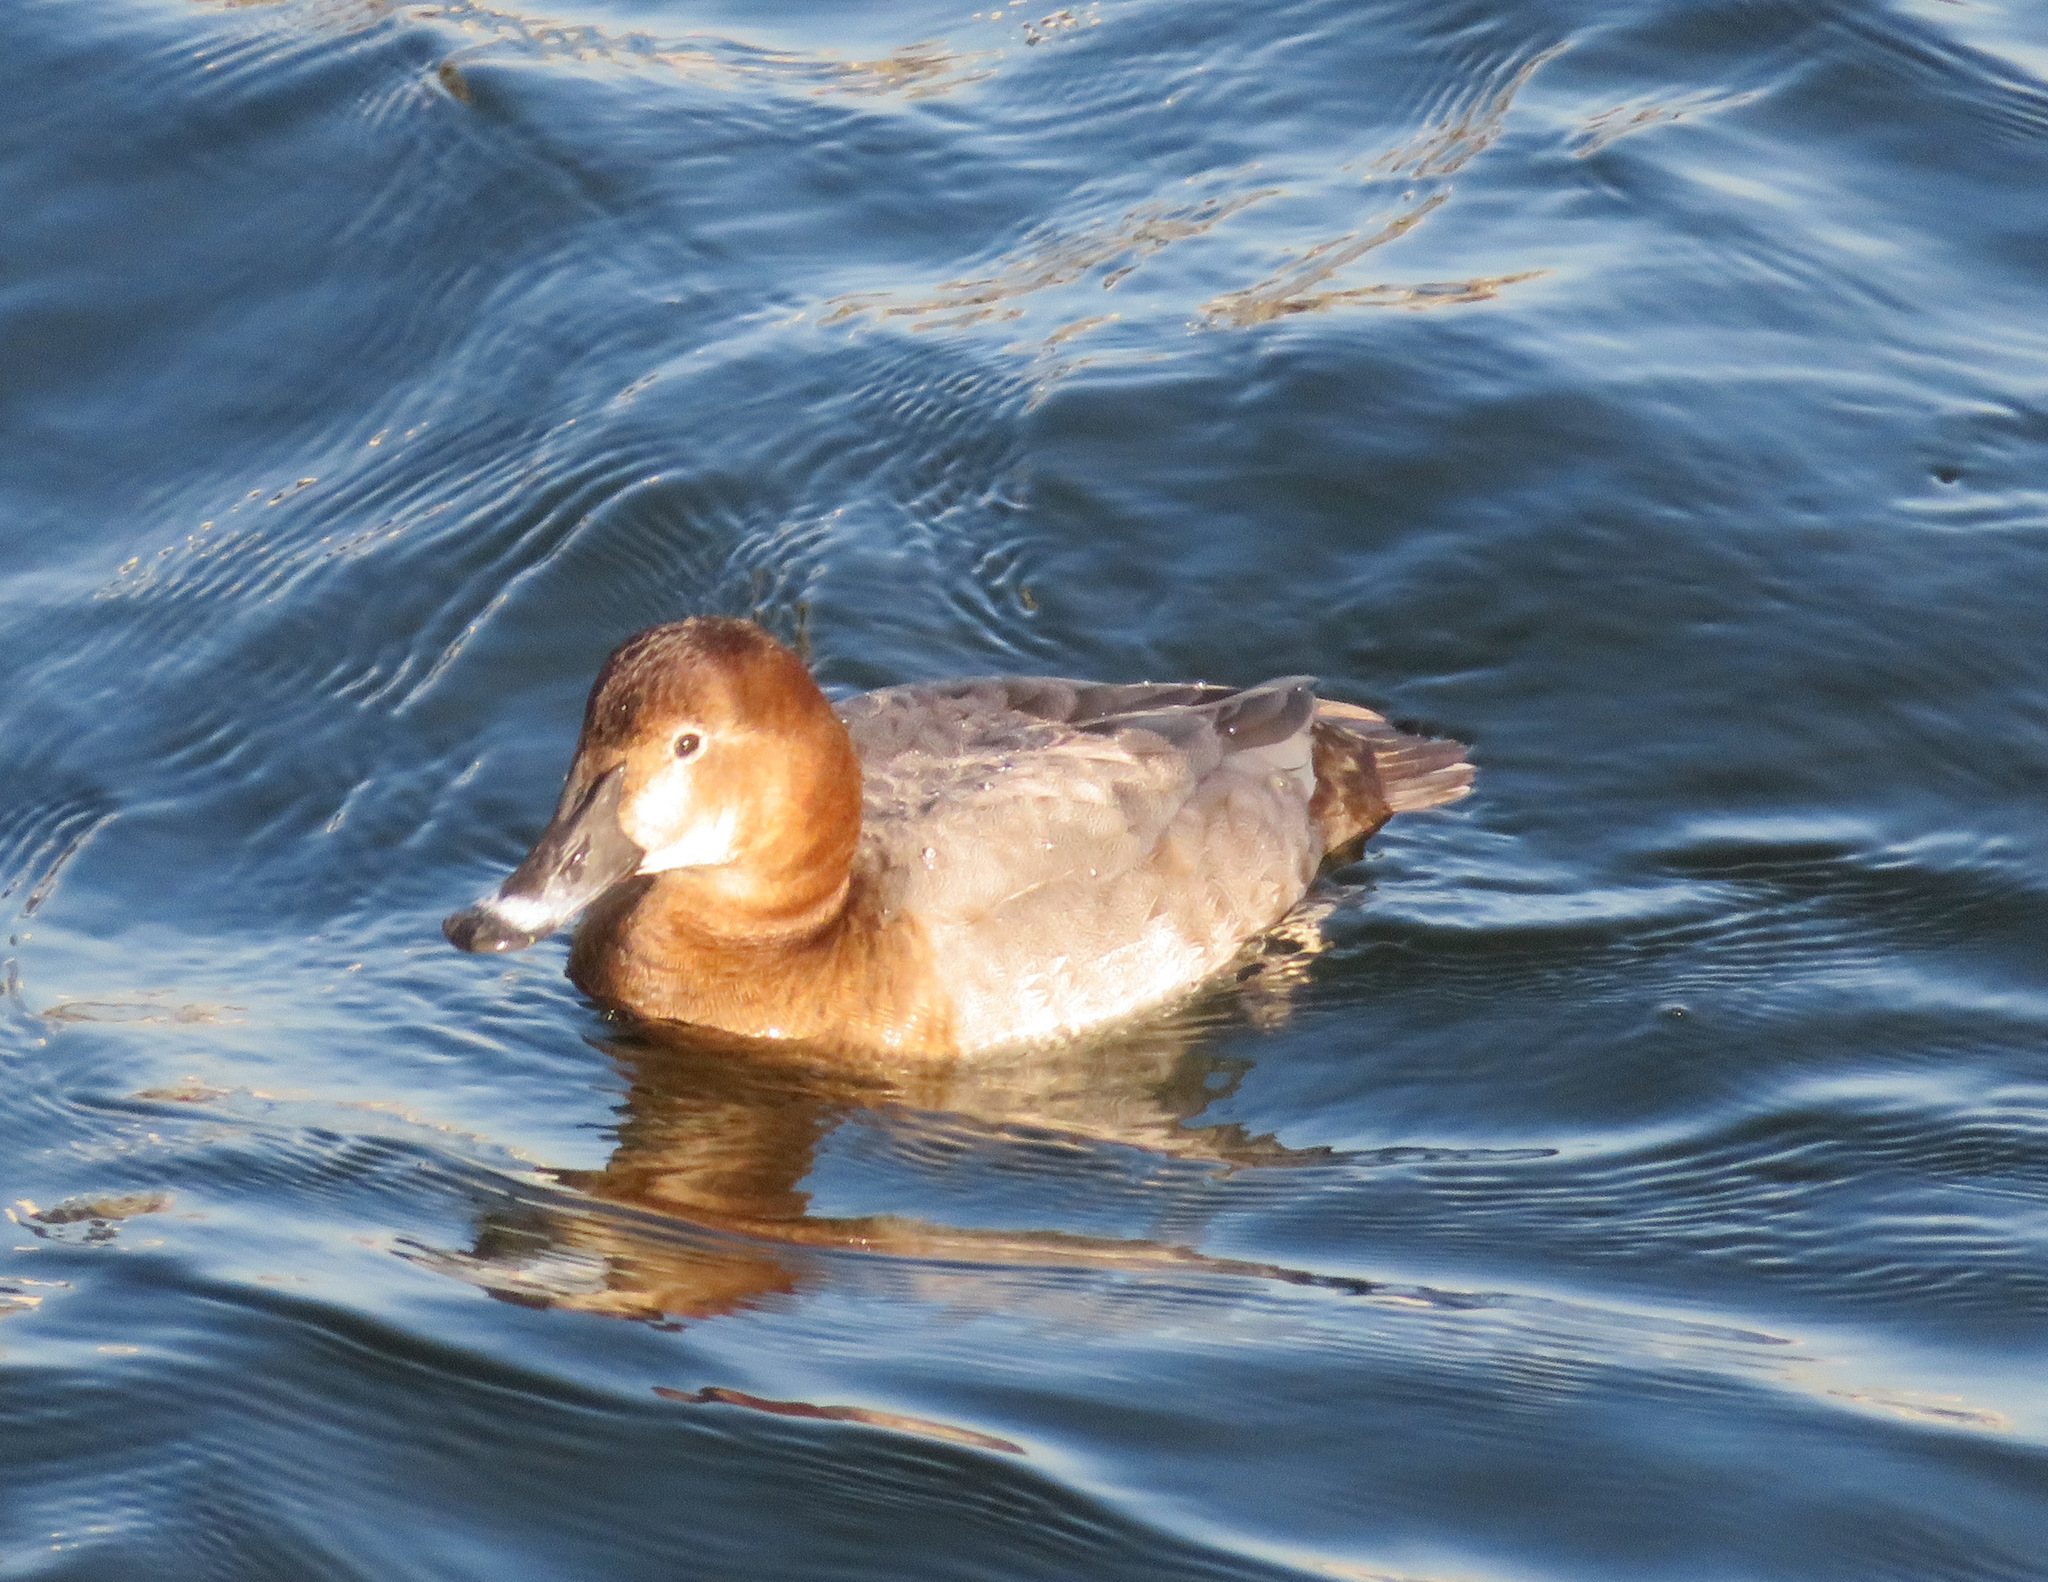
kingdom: Animalia
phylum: Chordata
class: Aves
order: Anseriformes
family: Anatidae
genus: Aythya
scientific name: Aythya ferina
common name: Common pochard
